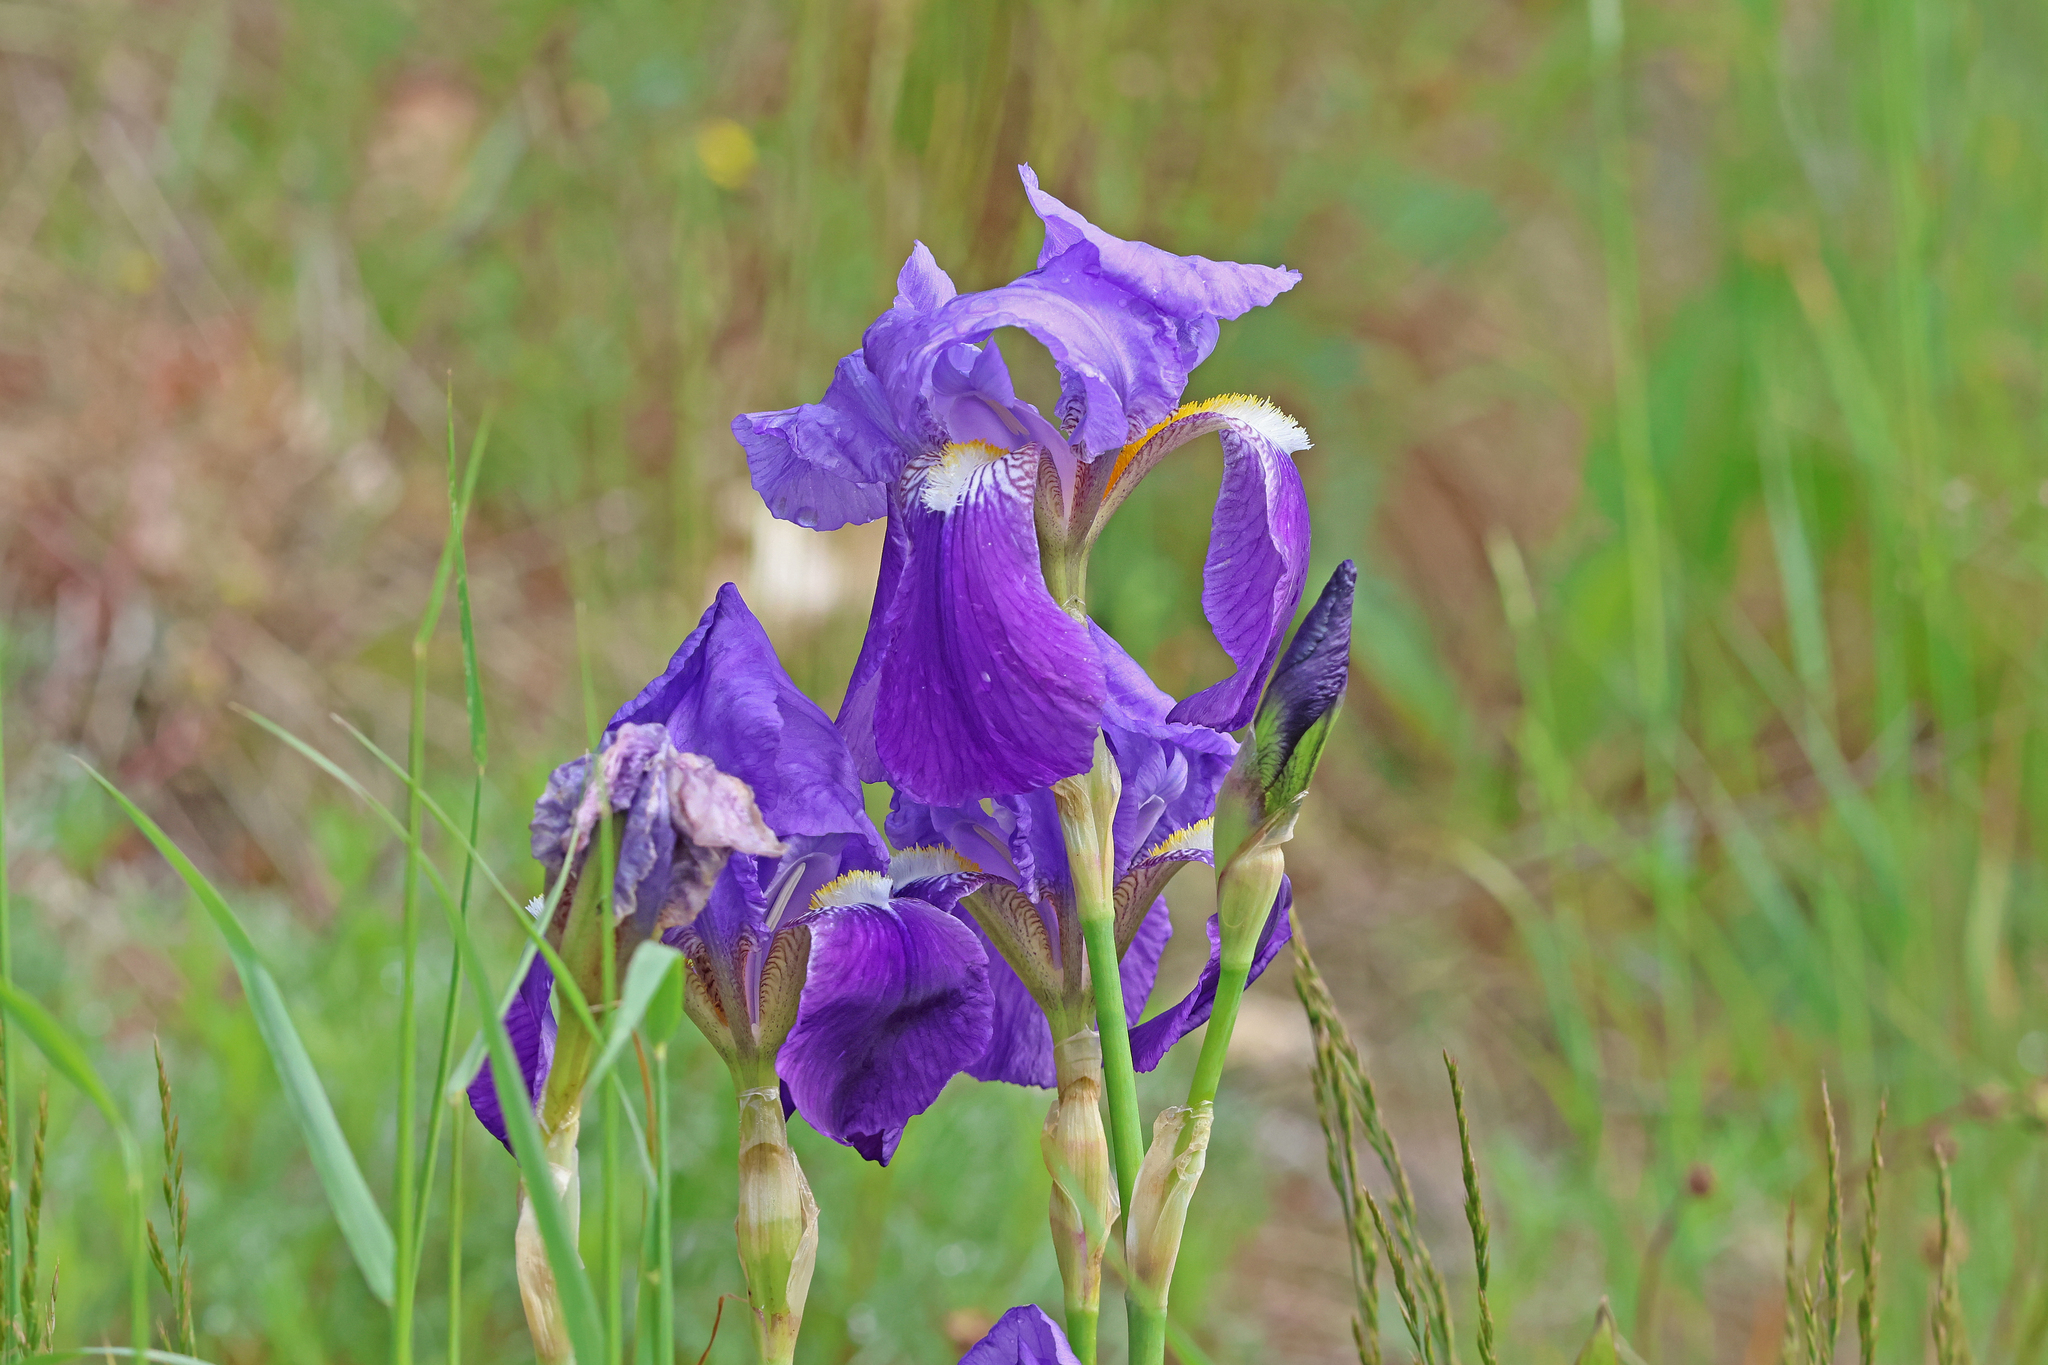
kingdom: Plantae
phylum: Tracheophyta
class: Liliopsida
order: Asparagales
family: Iridaceae
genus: Iris
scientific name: Iris germanica
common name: German iris
